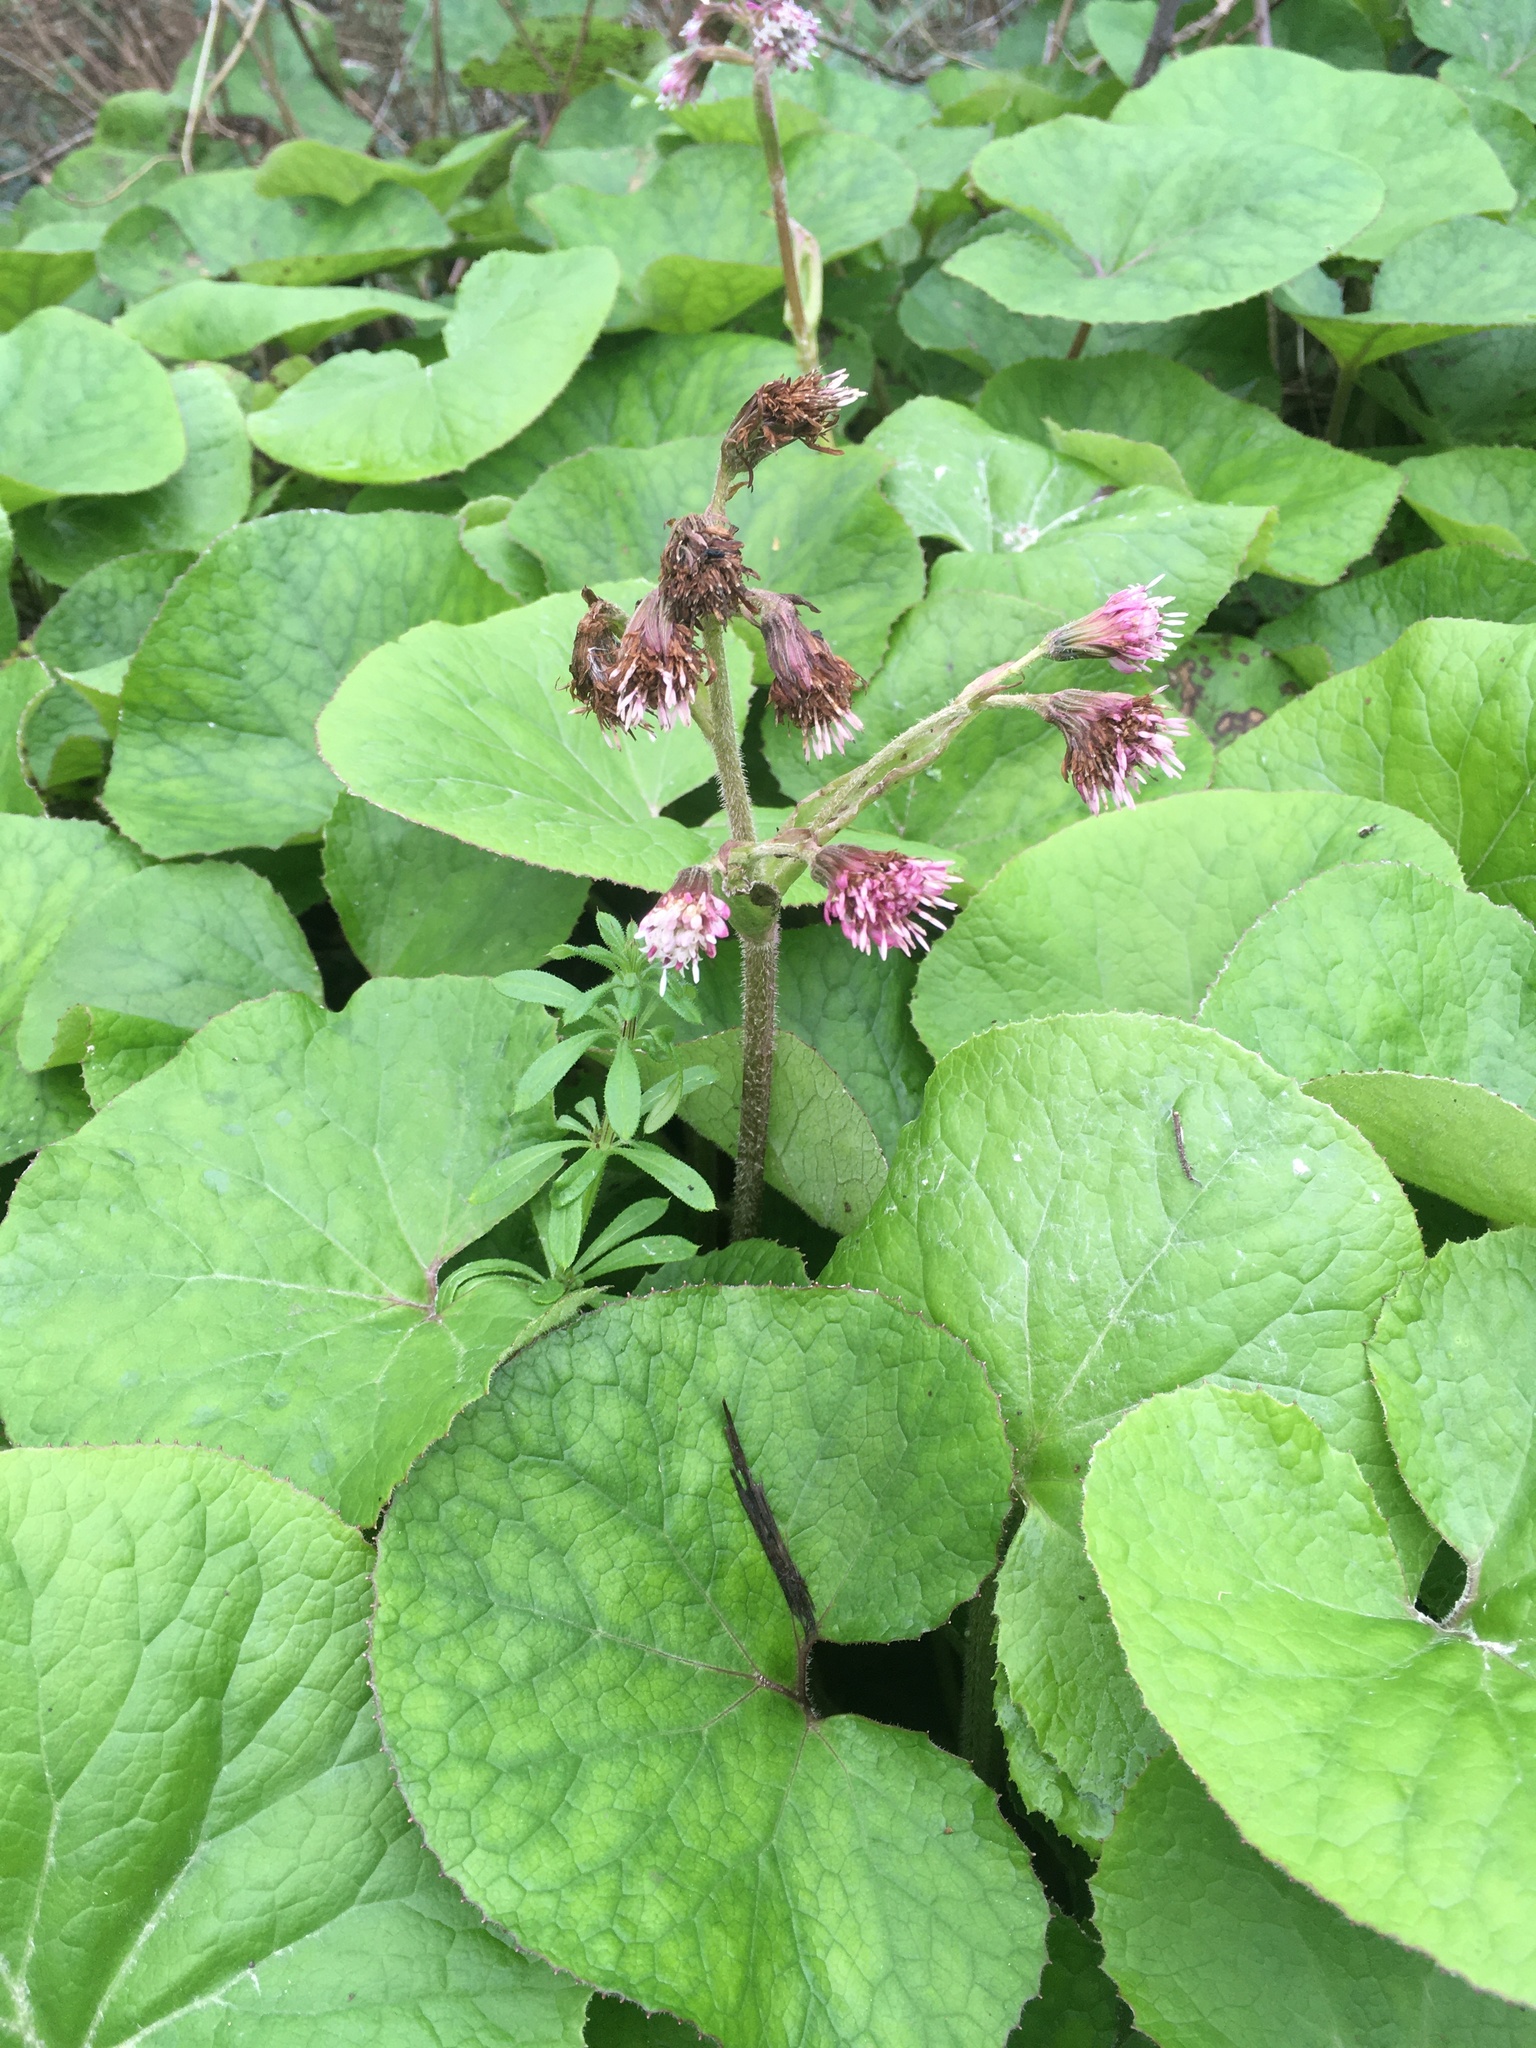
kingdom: Plantae
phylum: Tracheophyta
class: Magnoliopsida
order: Asterales
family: Asteraceae
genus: Petasites
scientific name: Petasites pyrenaicus
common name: Winter heliotrope
